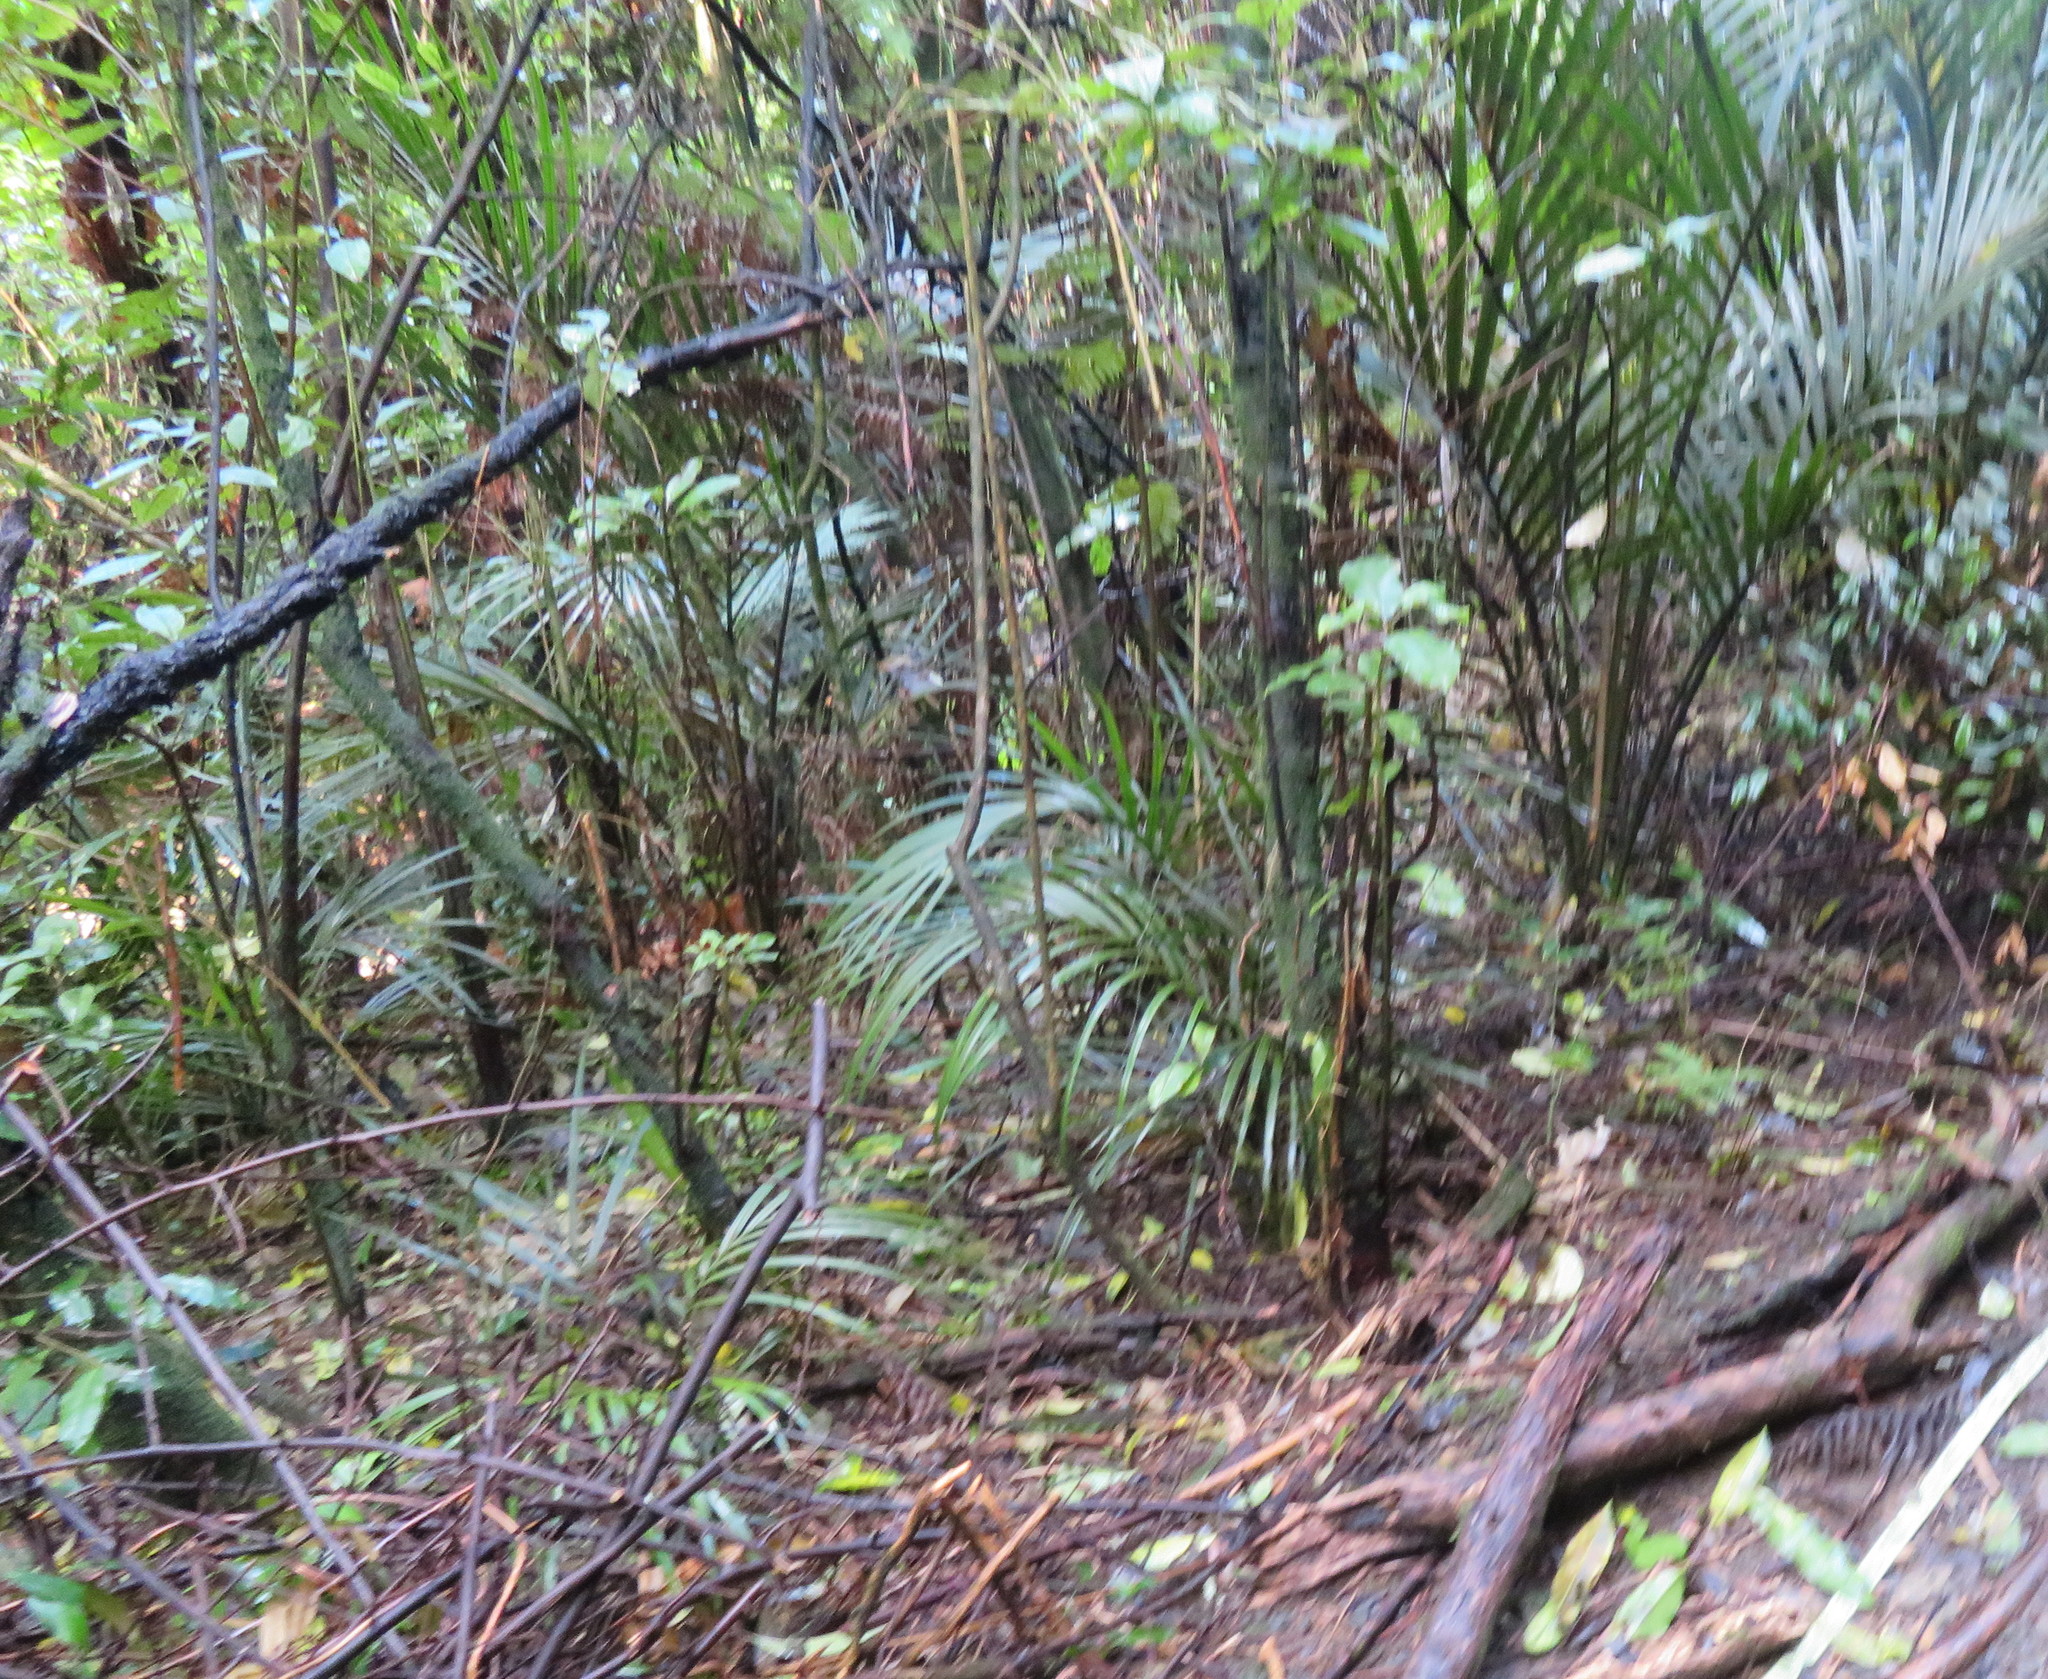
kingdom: Plantae
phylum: Tracheophyta
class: Liliopsida
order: Arecales
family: Arecaceae
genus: Rhopalostylis
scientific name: Rhopalostylis sapida
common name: Feather-duster palm
